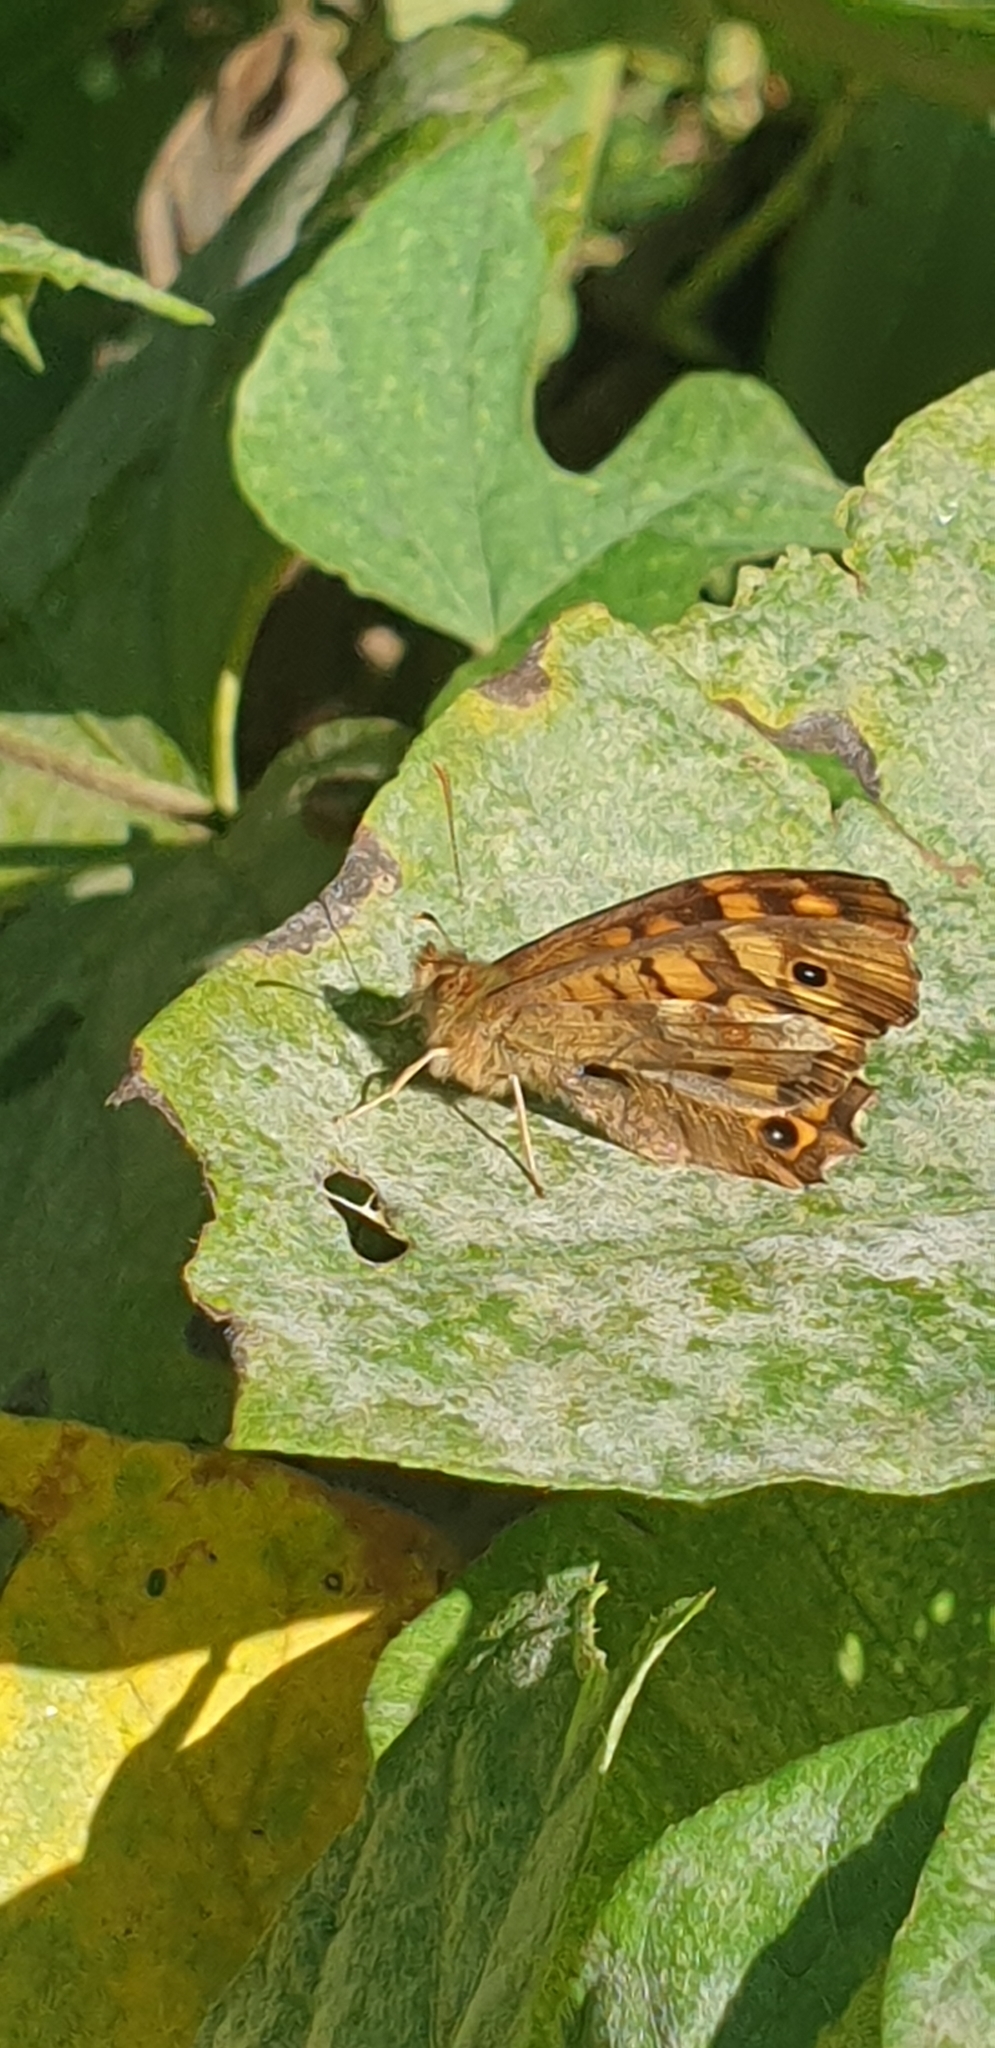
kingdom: Animalia
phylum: Arthropoda
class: Insecta
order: Lepidoptera
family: Nymphalidae
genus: Pararge
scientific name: Pararge aegeria
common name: Speckled wood
